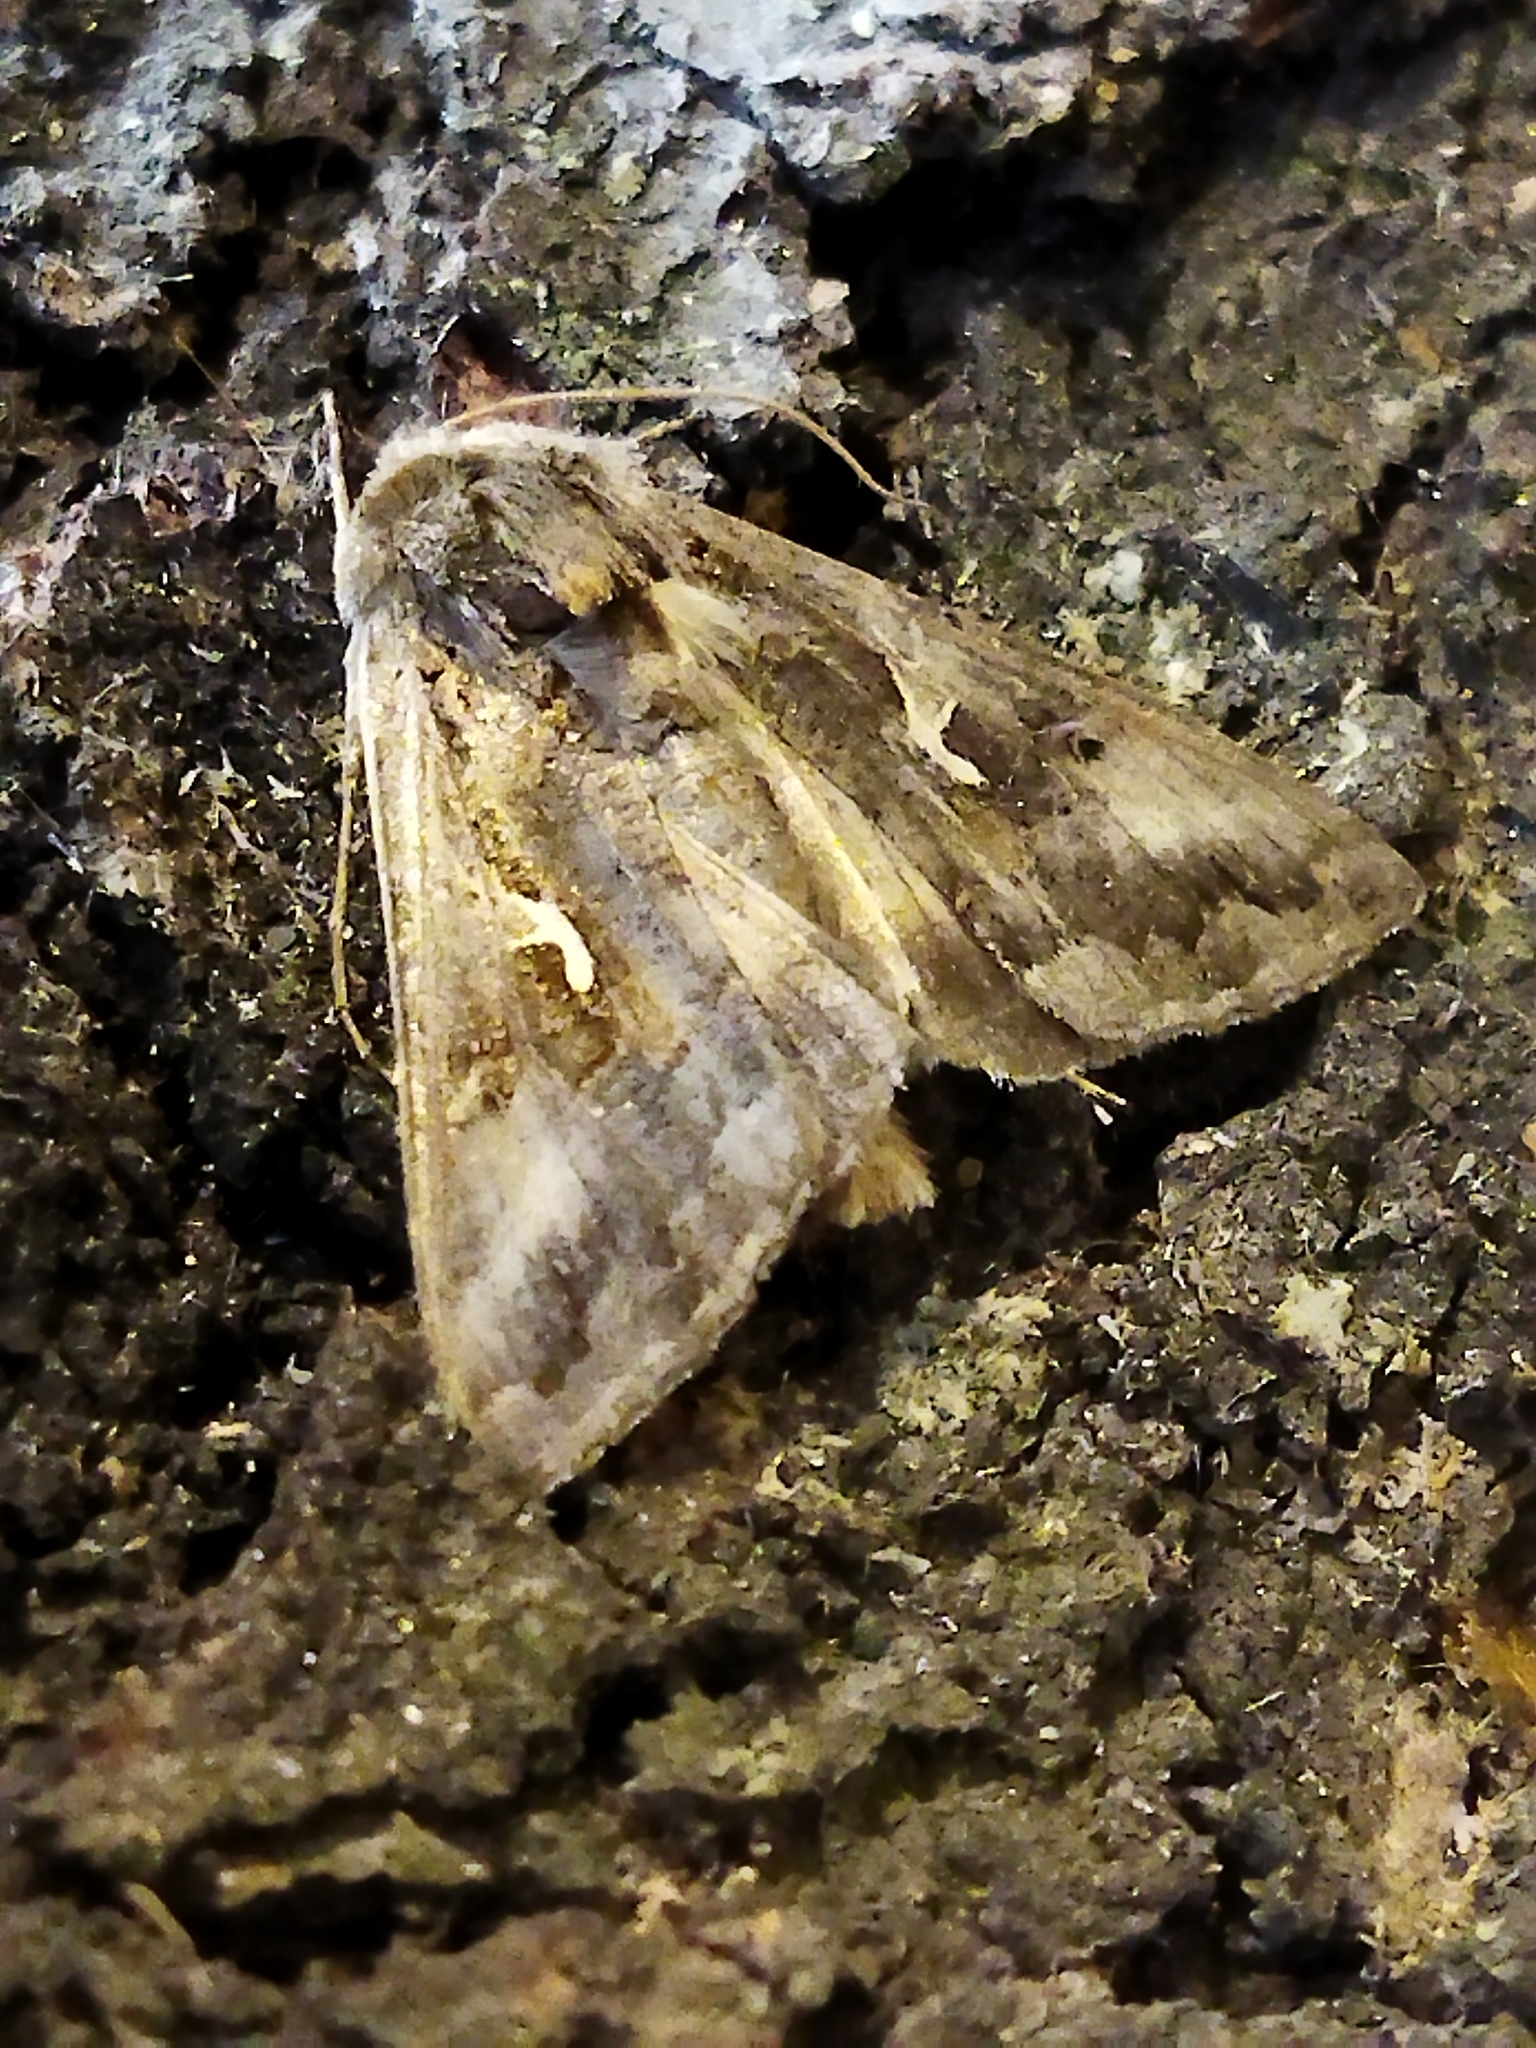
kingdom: Animalia
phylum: Arthropoda
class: Insecta
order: Lepidoptera
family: Noctuidae
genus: Autographa
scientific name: Autographa gamma
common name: Silver y
